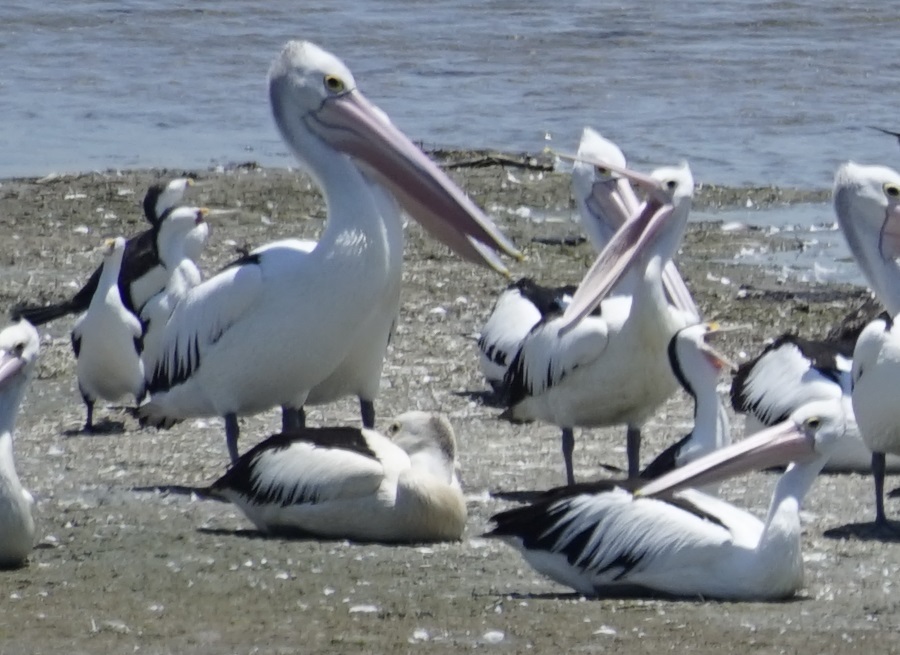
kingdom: Animalia
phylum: Chordata
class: Aves
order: Pelecaniformes
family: Pelecanidae
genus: Pelecanus
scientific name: Pelecanus conspicillatus
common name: Australian pelican
